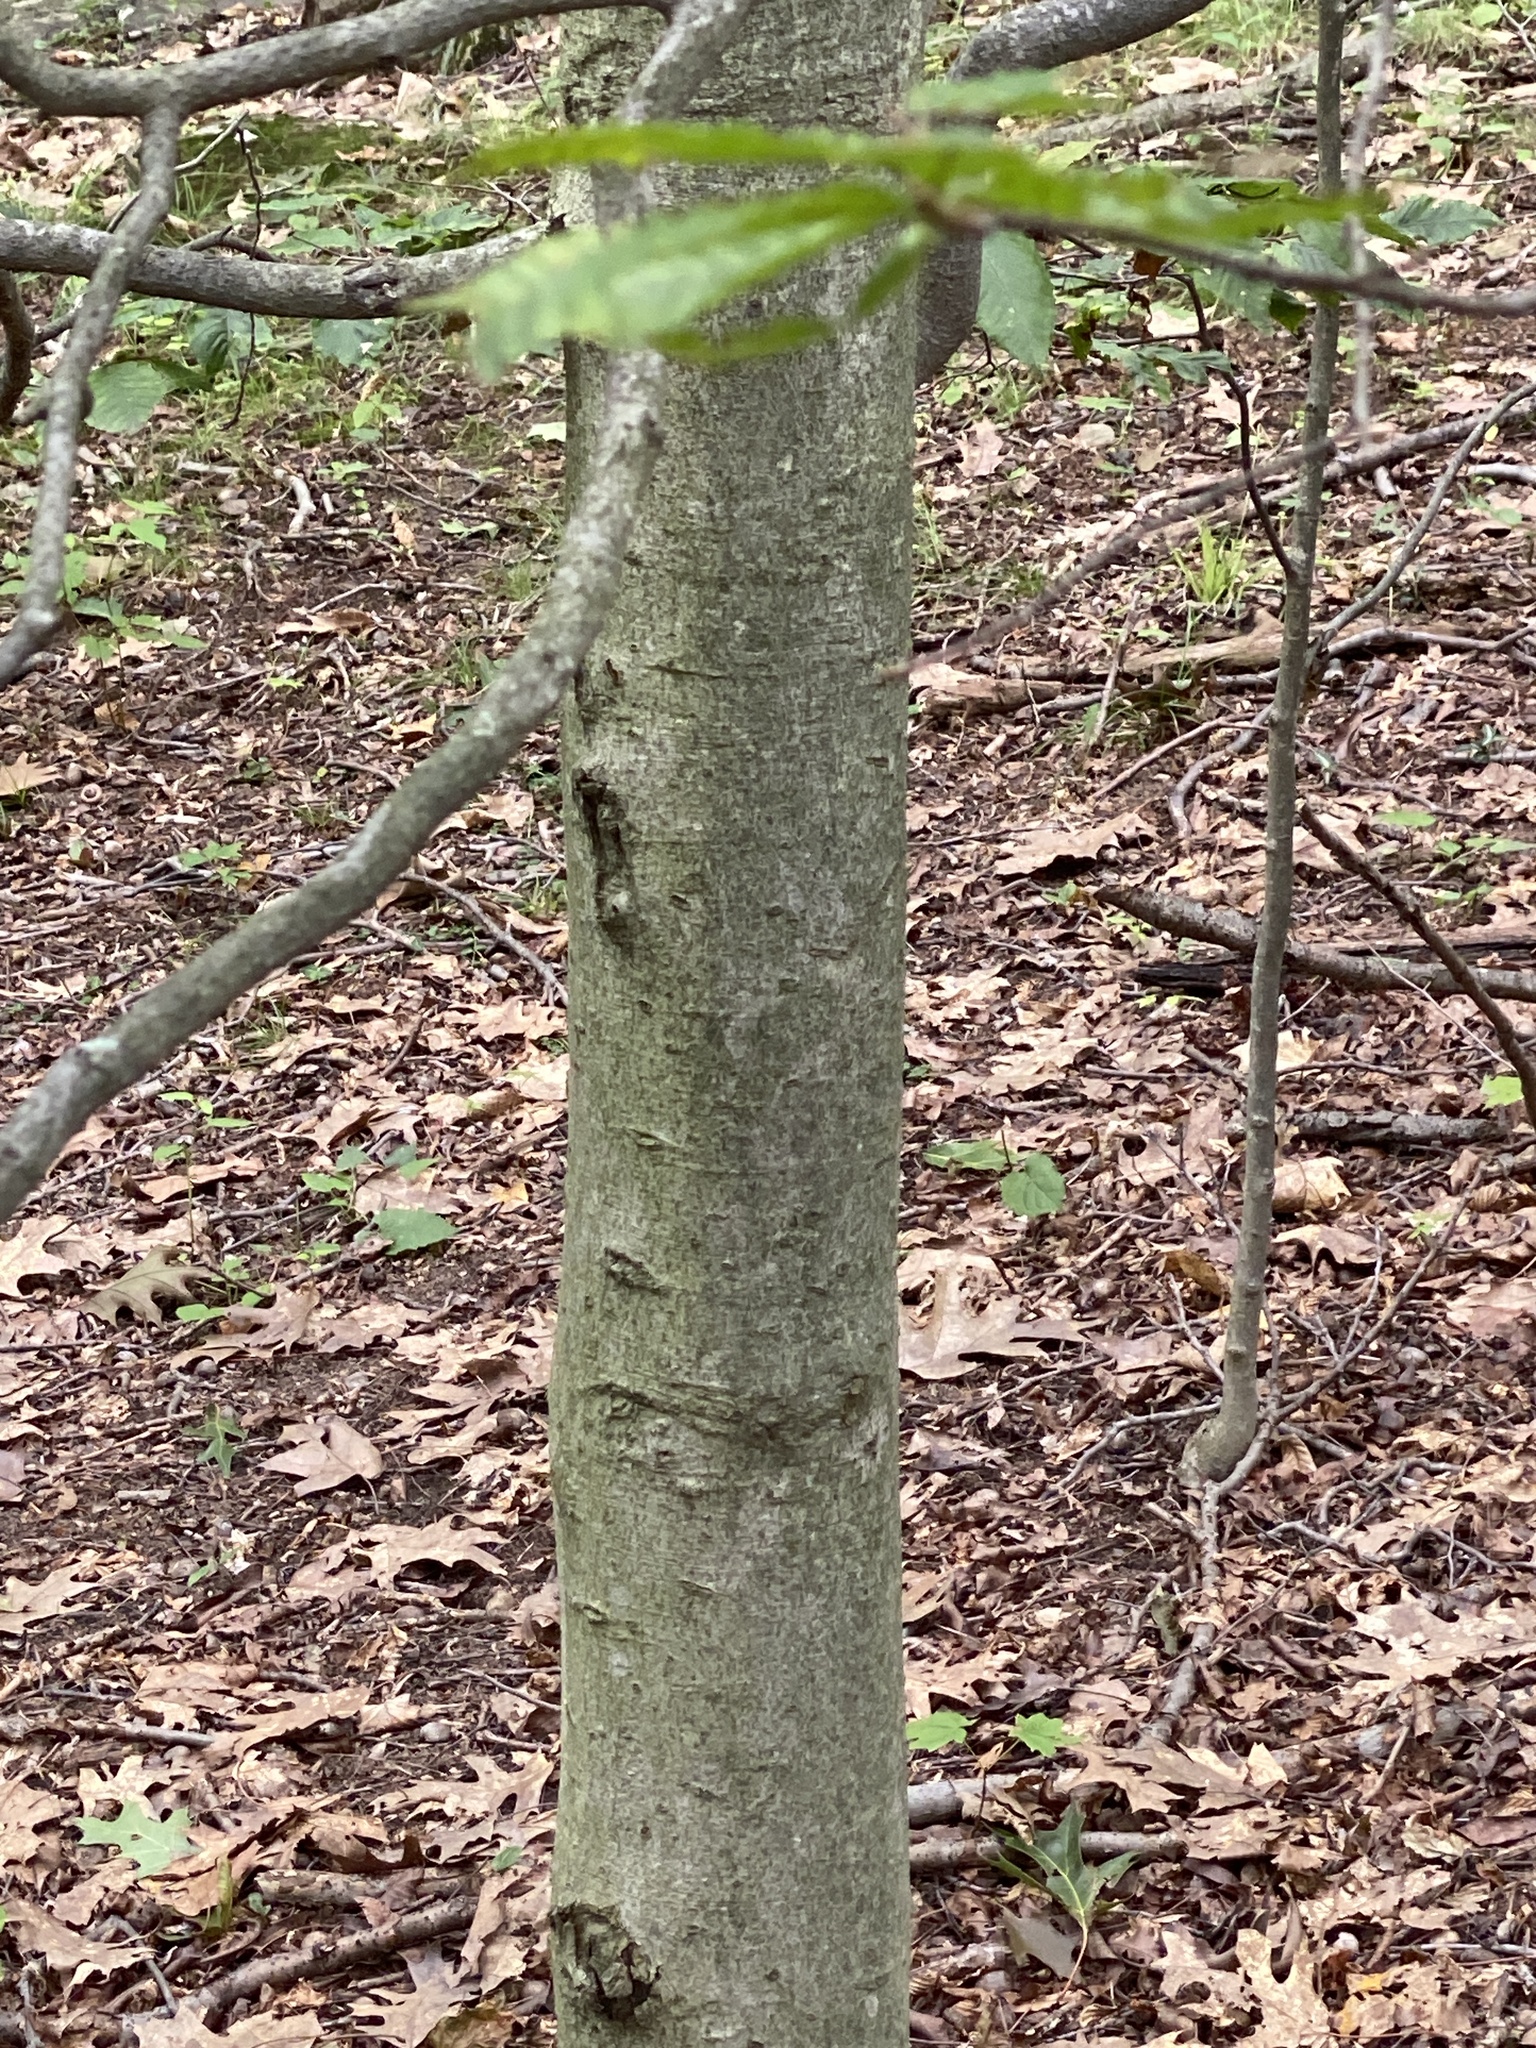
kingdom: Plantae
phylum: Tracheophyta
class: Magnoliopsida
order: Fagales
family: Fagaceae
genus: Fagus
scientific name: Fagus grandifolia
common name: American beech
